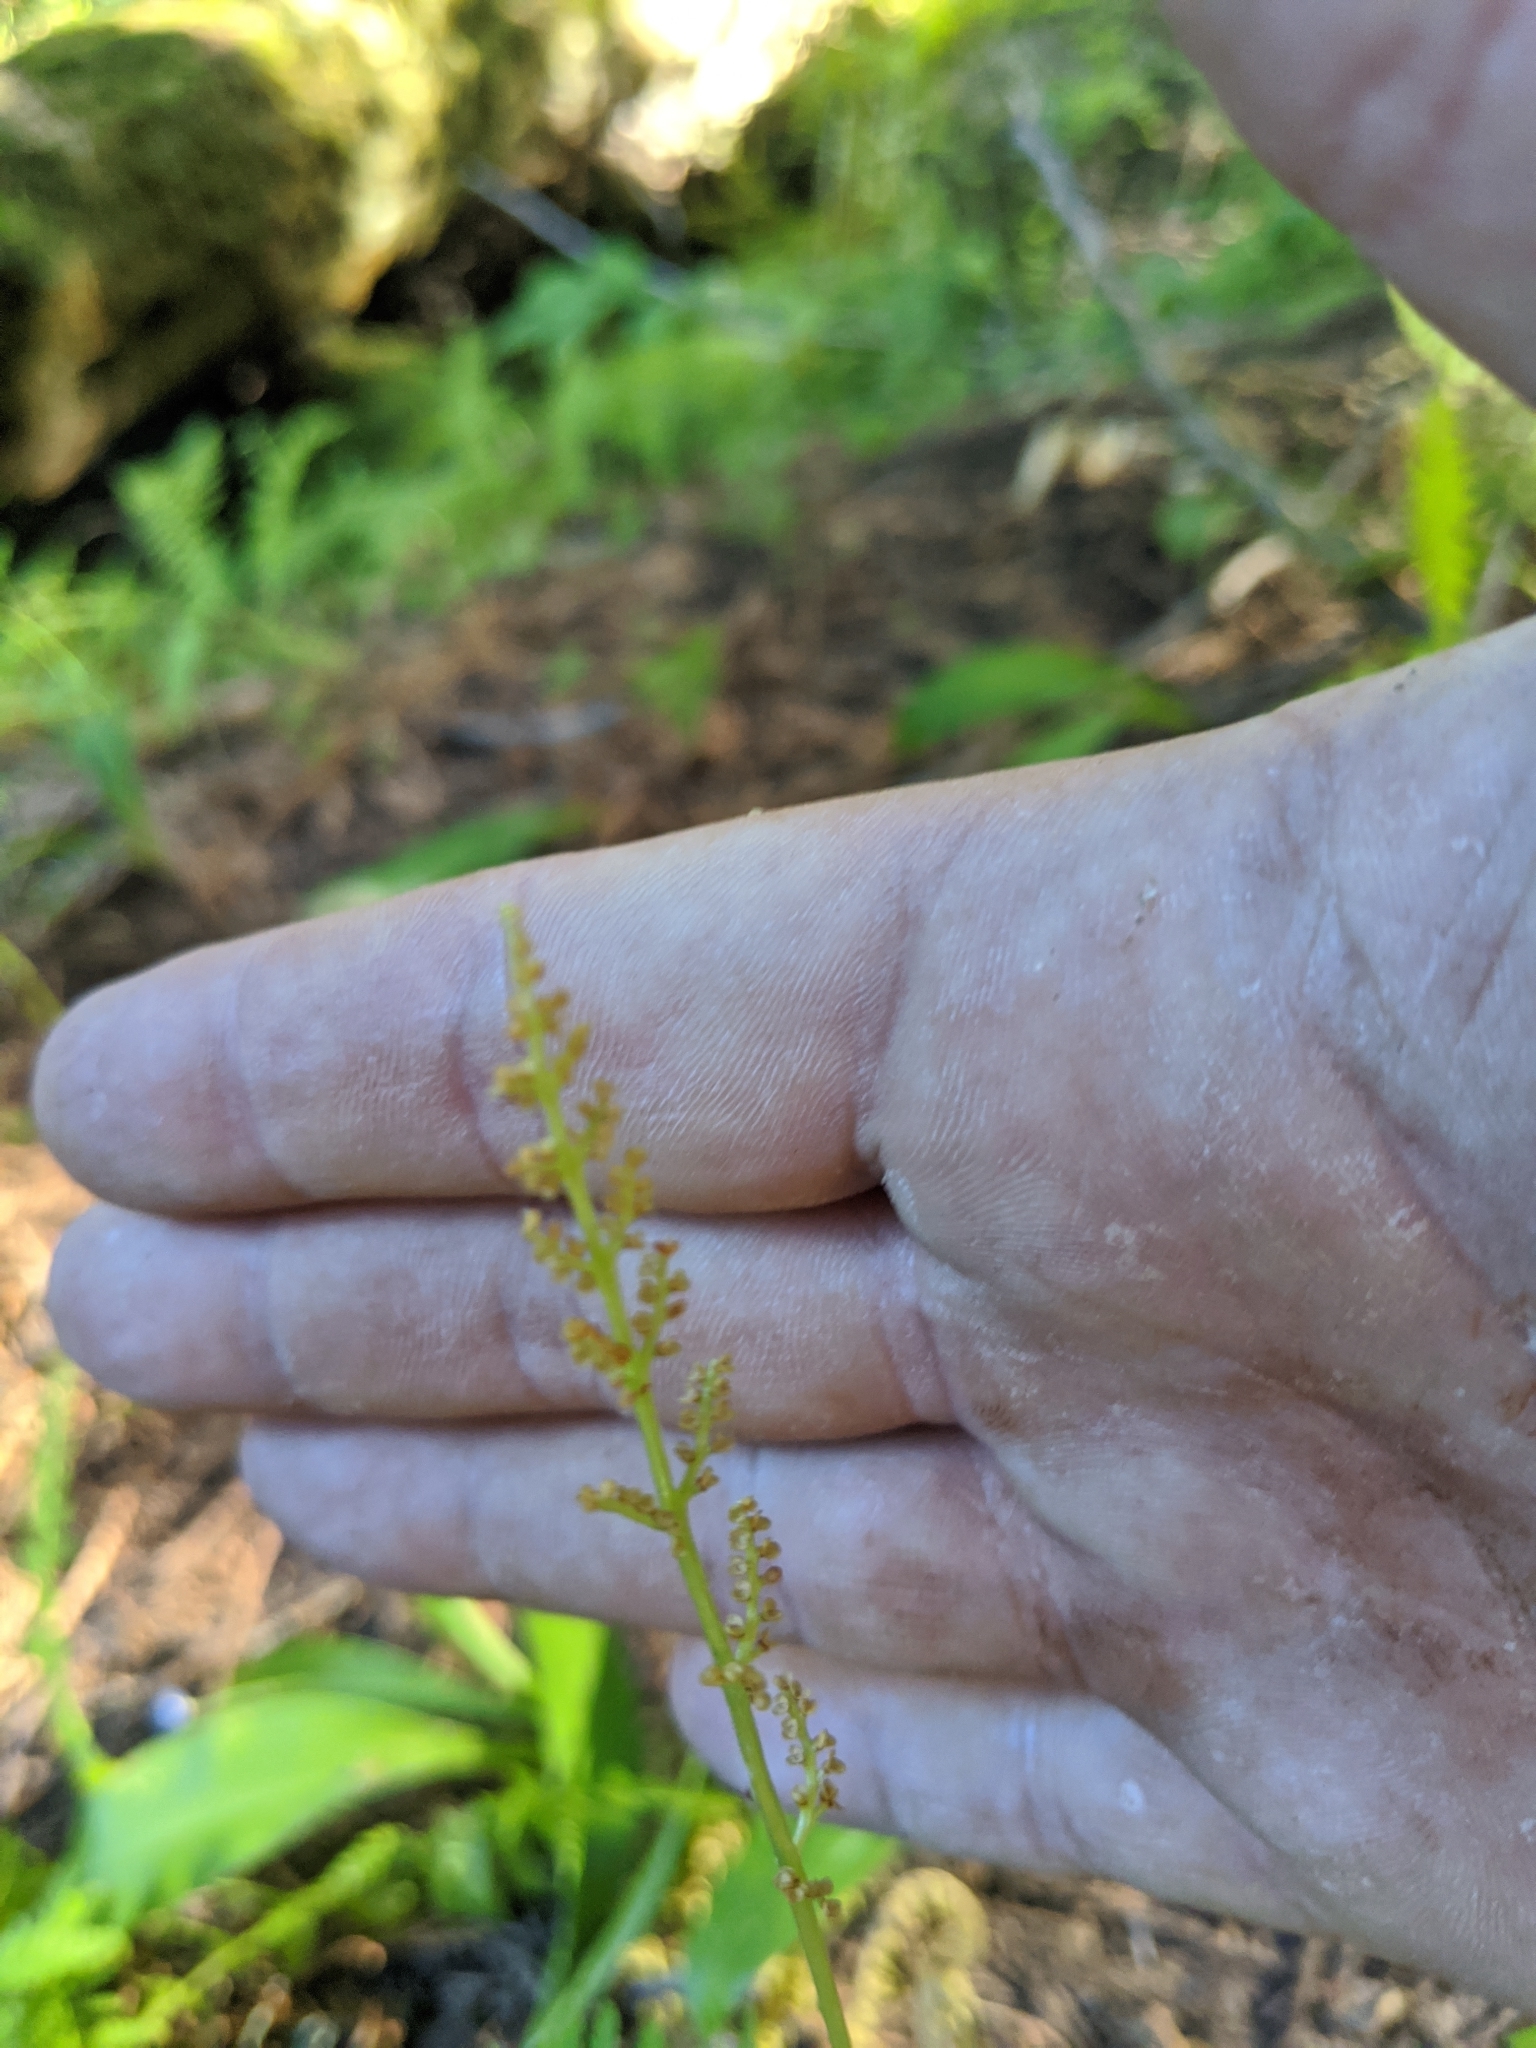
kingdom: Plantae
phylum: Tracheophyta
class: Polypodiopsida
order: Ophioglossales
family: Ophioglossaceae
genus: Botrypus
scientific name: Botrypus virginianus
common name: Common grapefern
